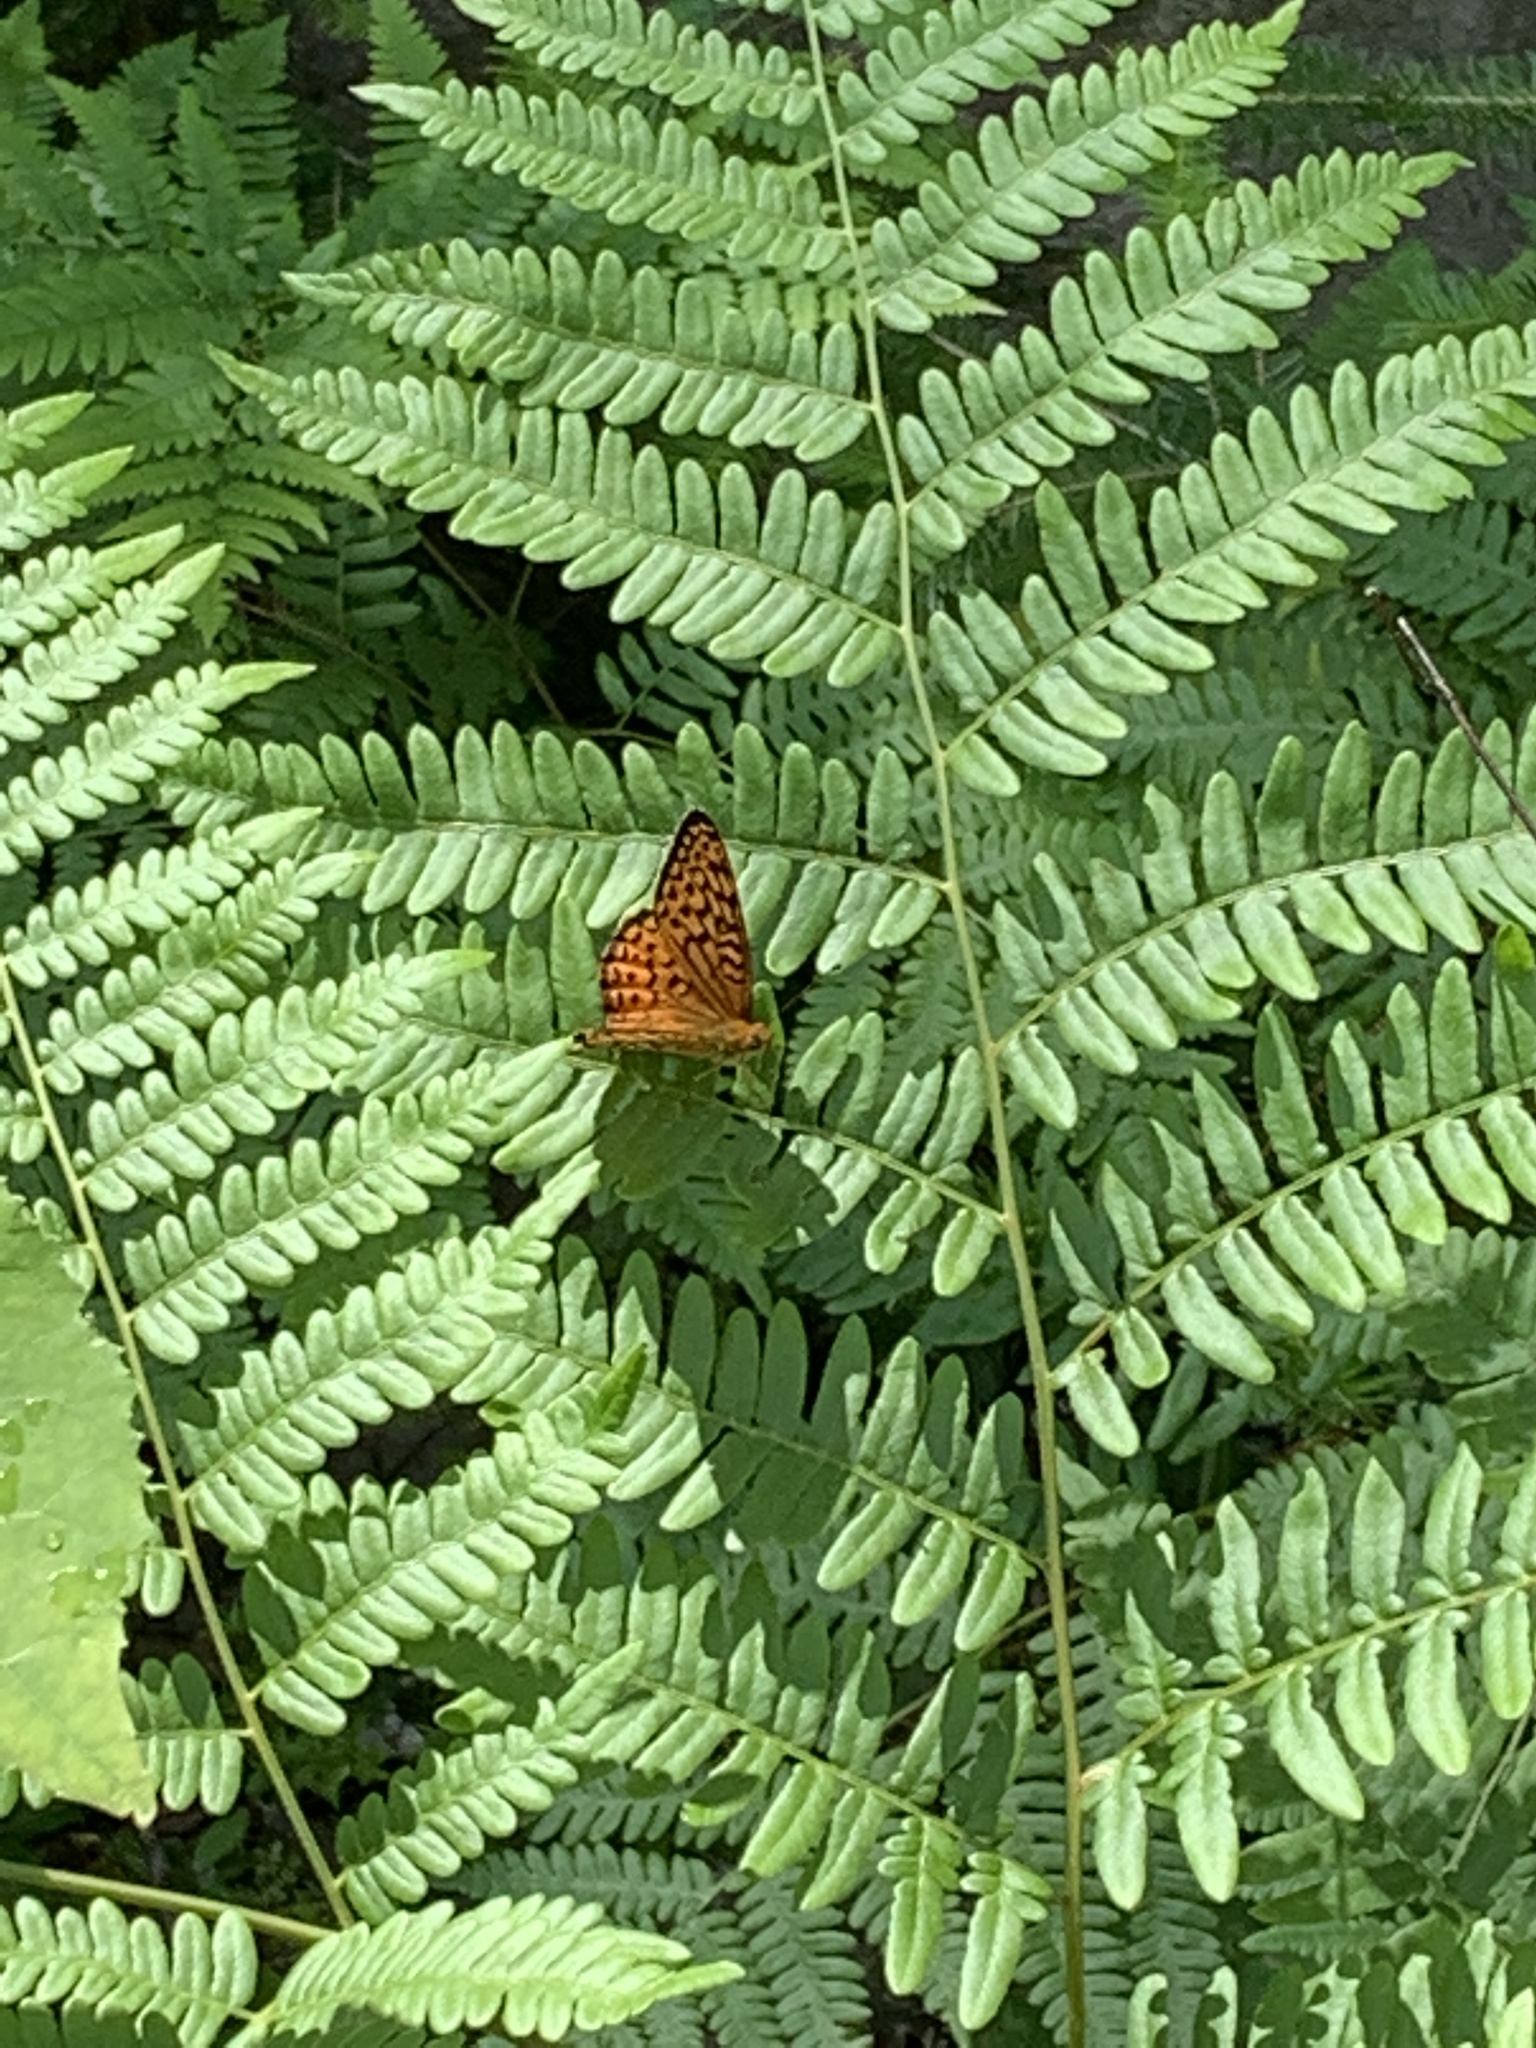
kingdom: Animalia
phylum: Arthropoda
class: Insecta
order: Lepidoptera
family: Nymphalidae
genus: Speyeria
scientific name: Speyeria atlantis
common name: Atlantis fritillary
